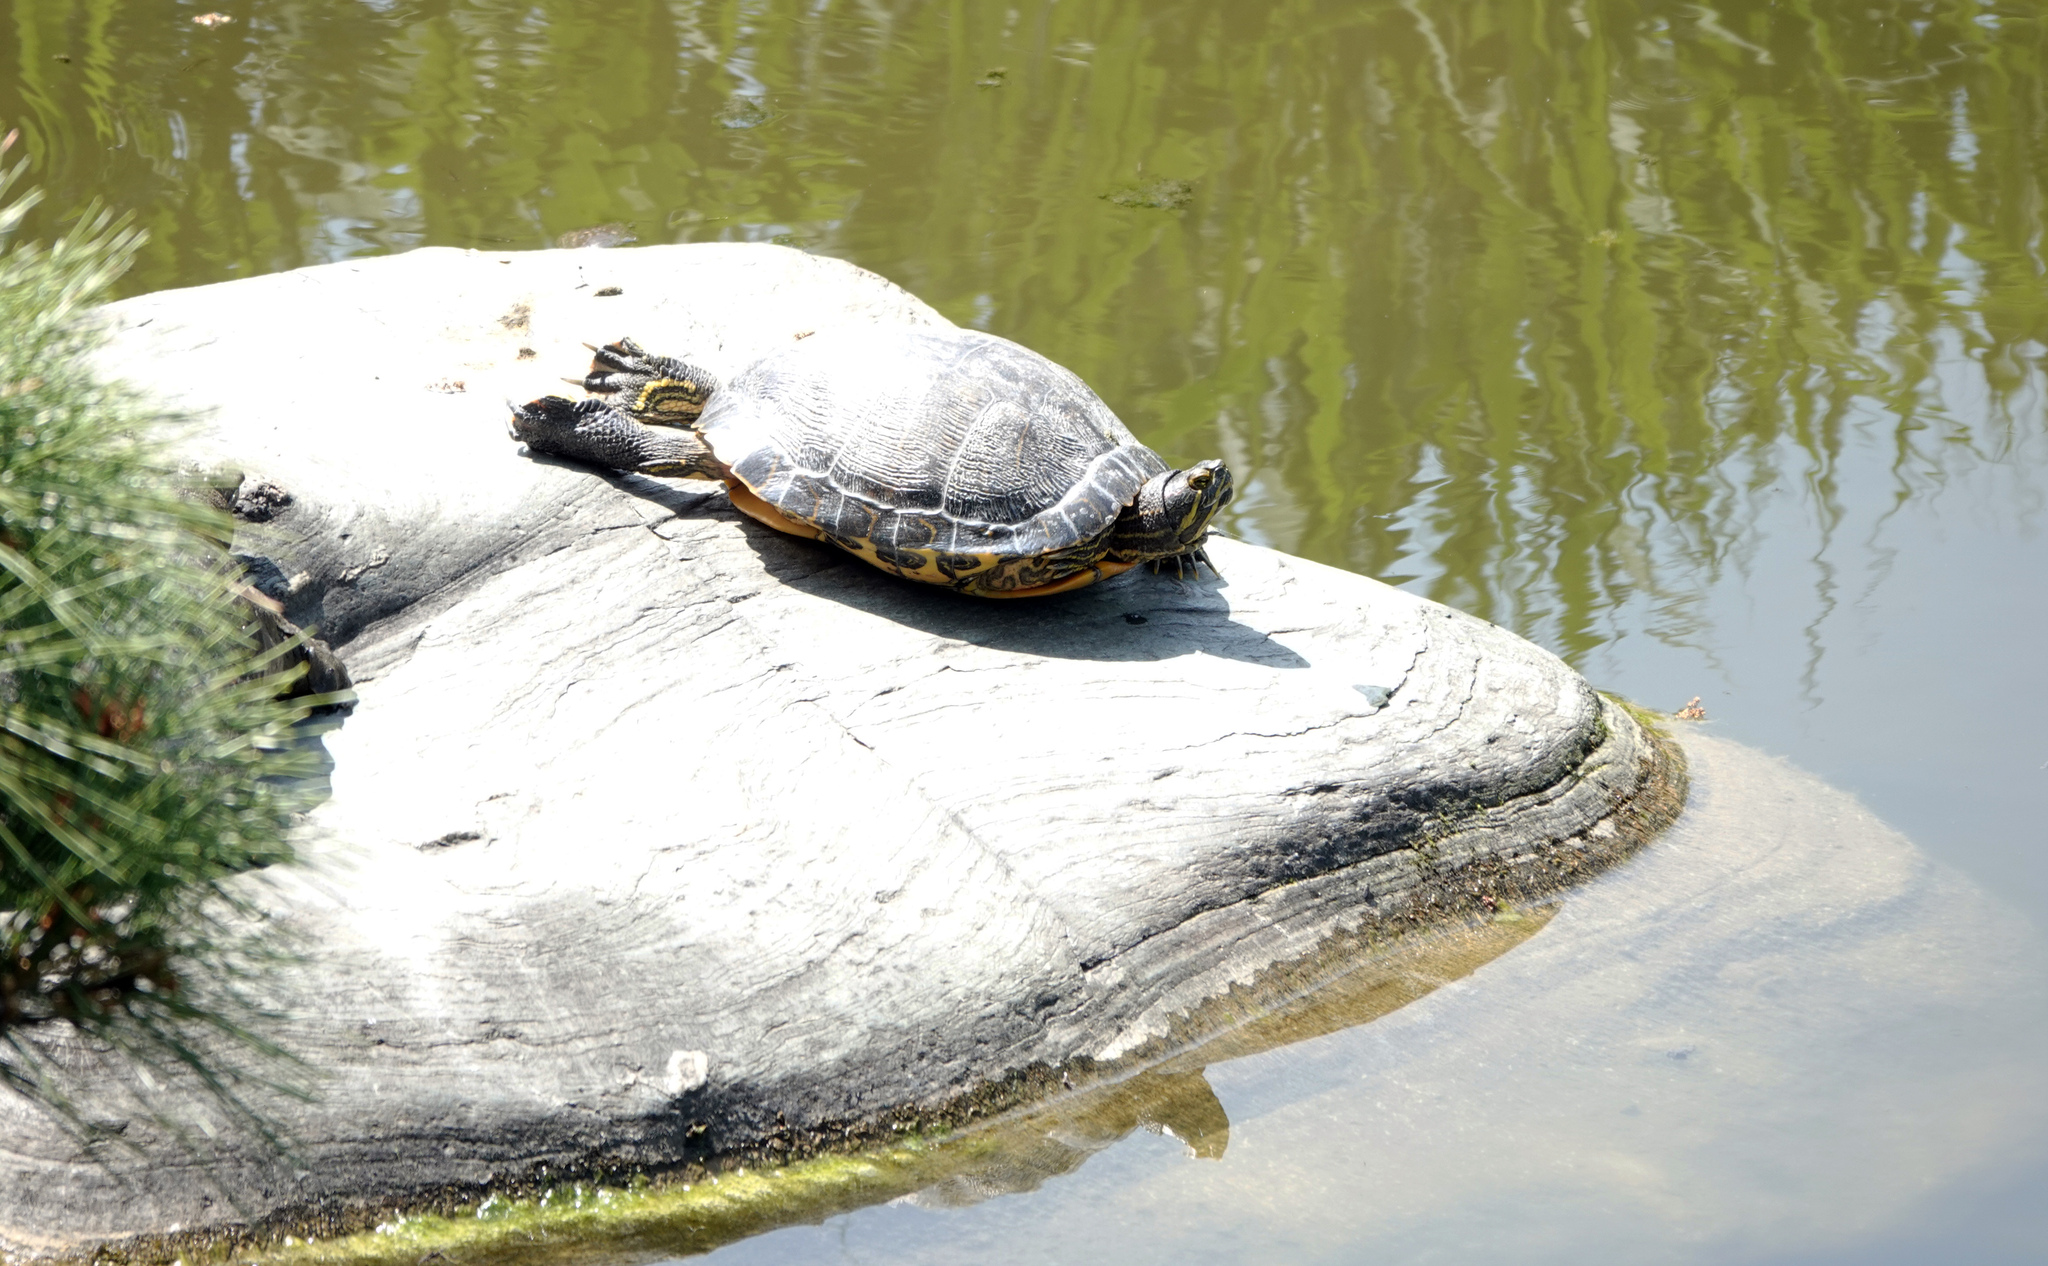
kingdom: Animalia
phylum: Chordata
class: Testudines
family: Emydidae
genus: Trachemys
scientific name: Trachemys scripta
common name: Slider
